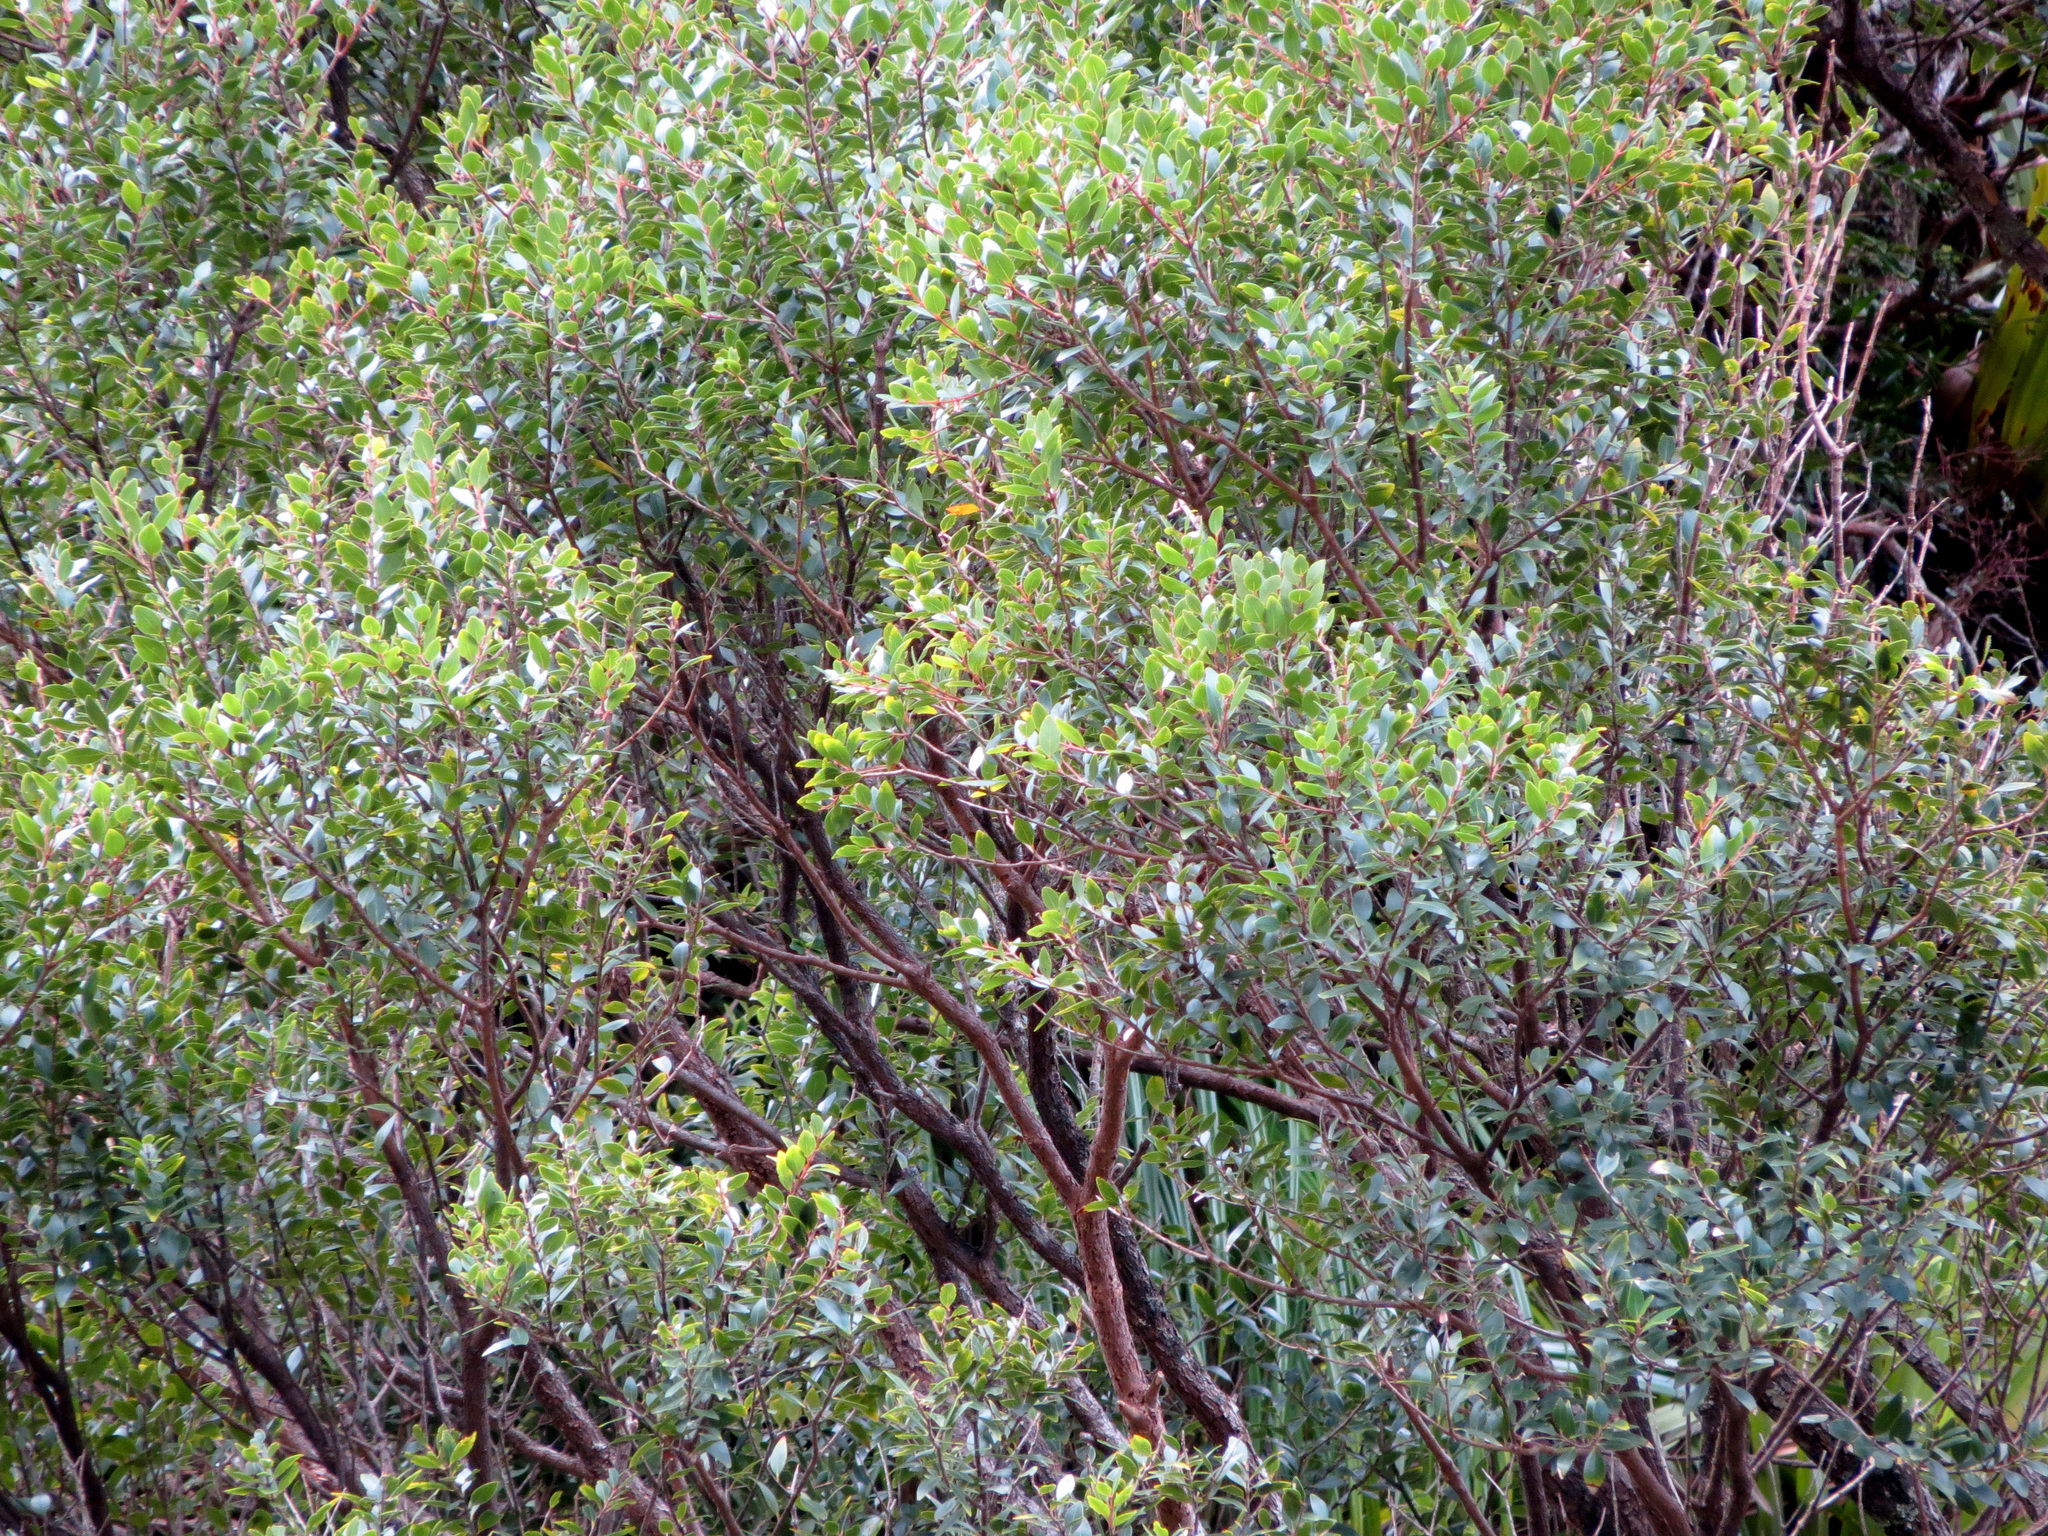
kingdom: Plantae
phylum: Tracheophyta
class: Magnoliopsida
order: Myrtales
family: Myrtaceae
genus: Metrosideros
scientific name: Metrosideros robusta
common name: Northern rata
